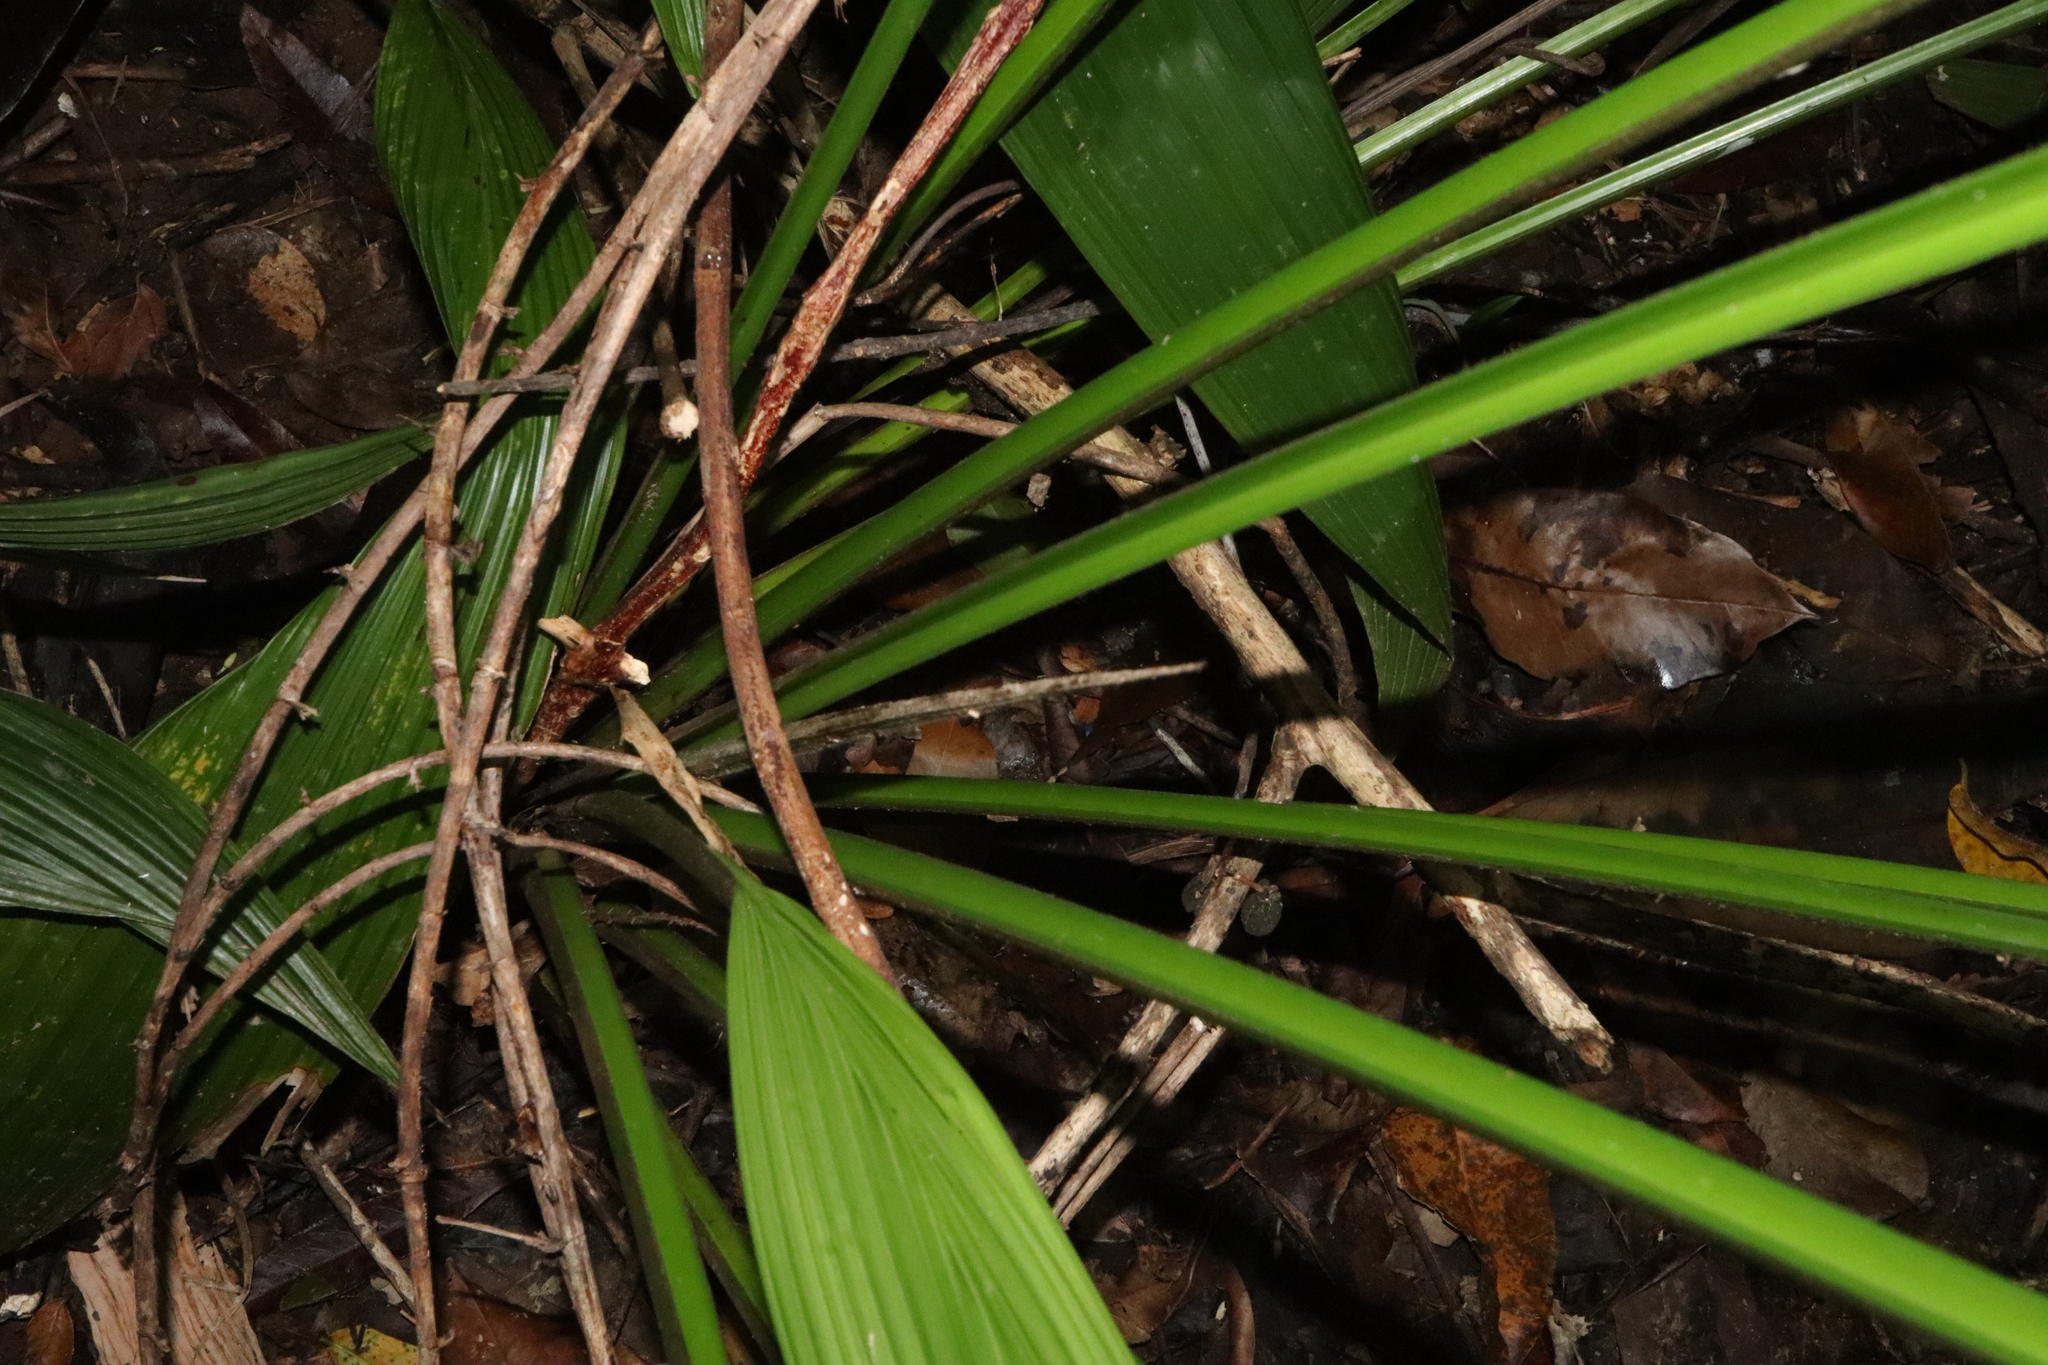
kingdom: Plantae
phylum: Tracheophyta
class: Liliopsida
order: Asparagales
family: Hypoxidaceae
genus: Curculigo
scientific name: Curculigo capitulata
